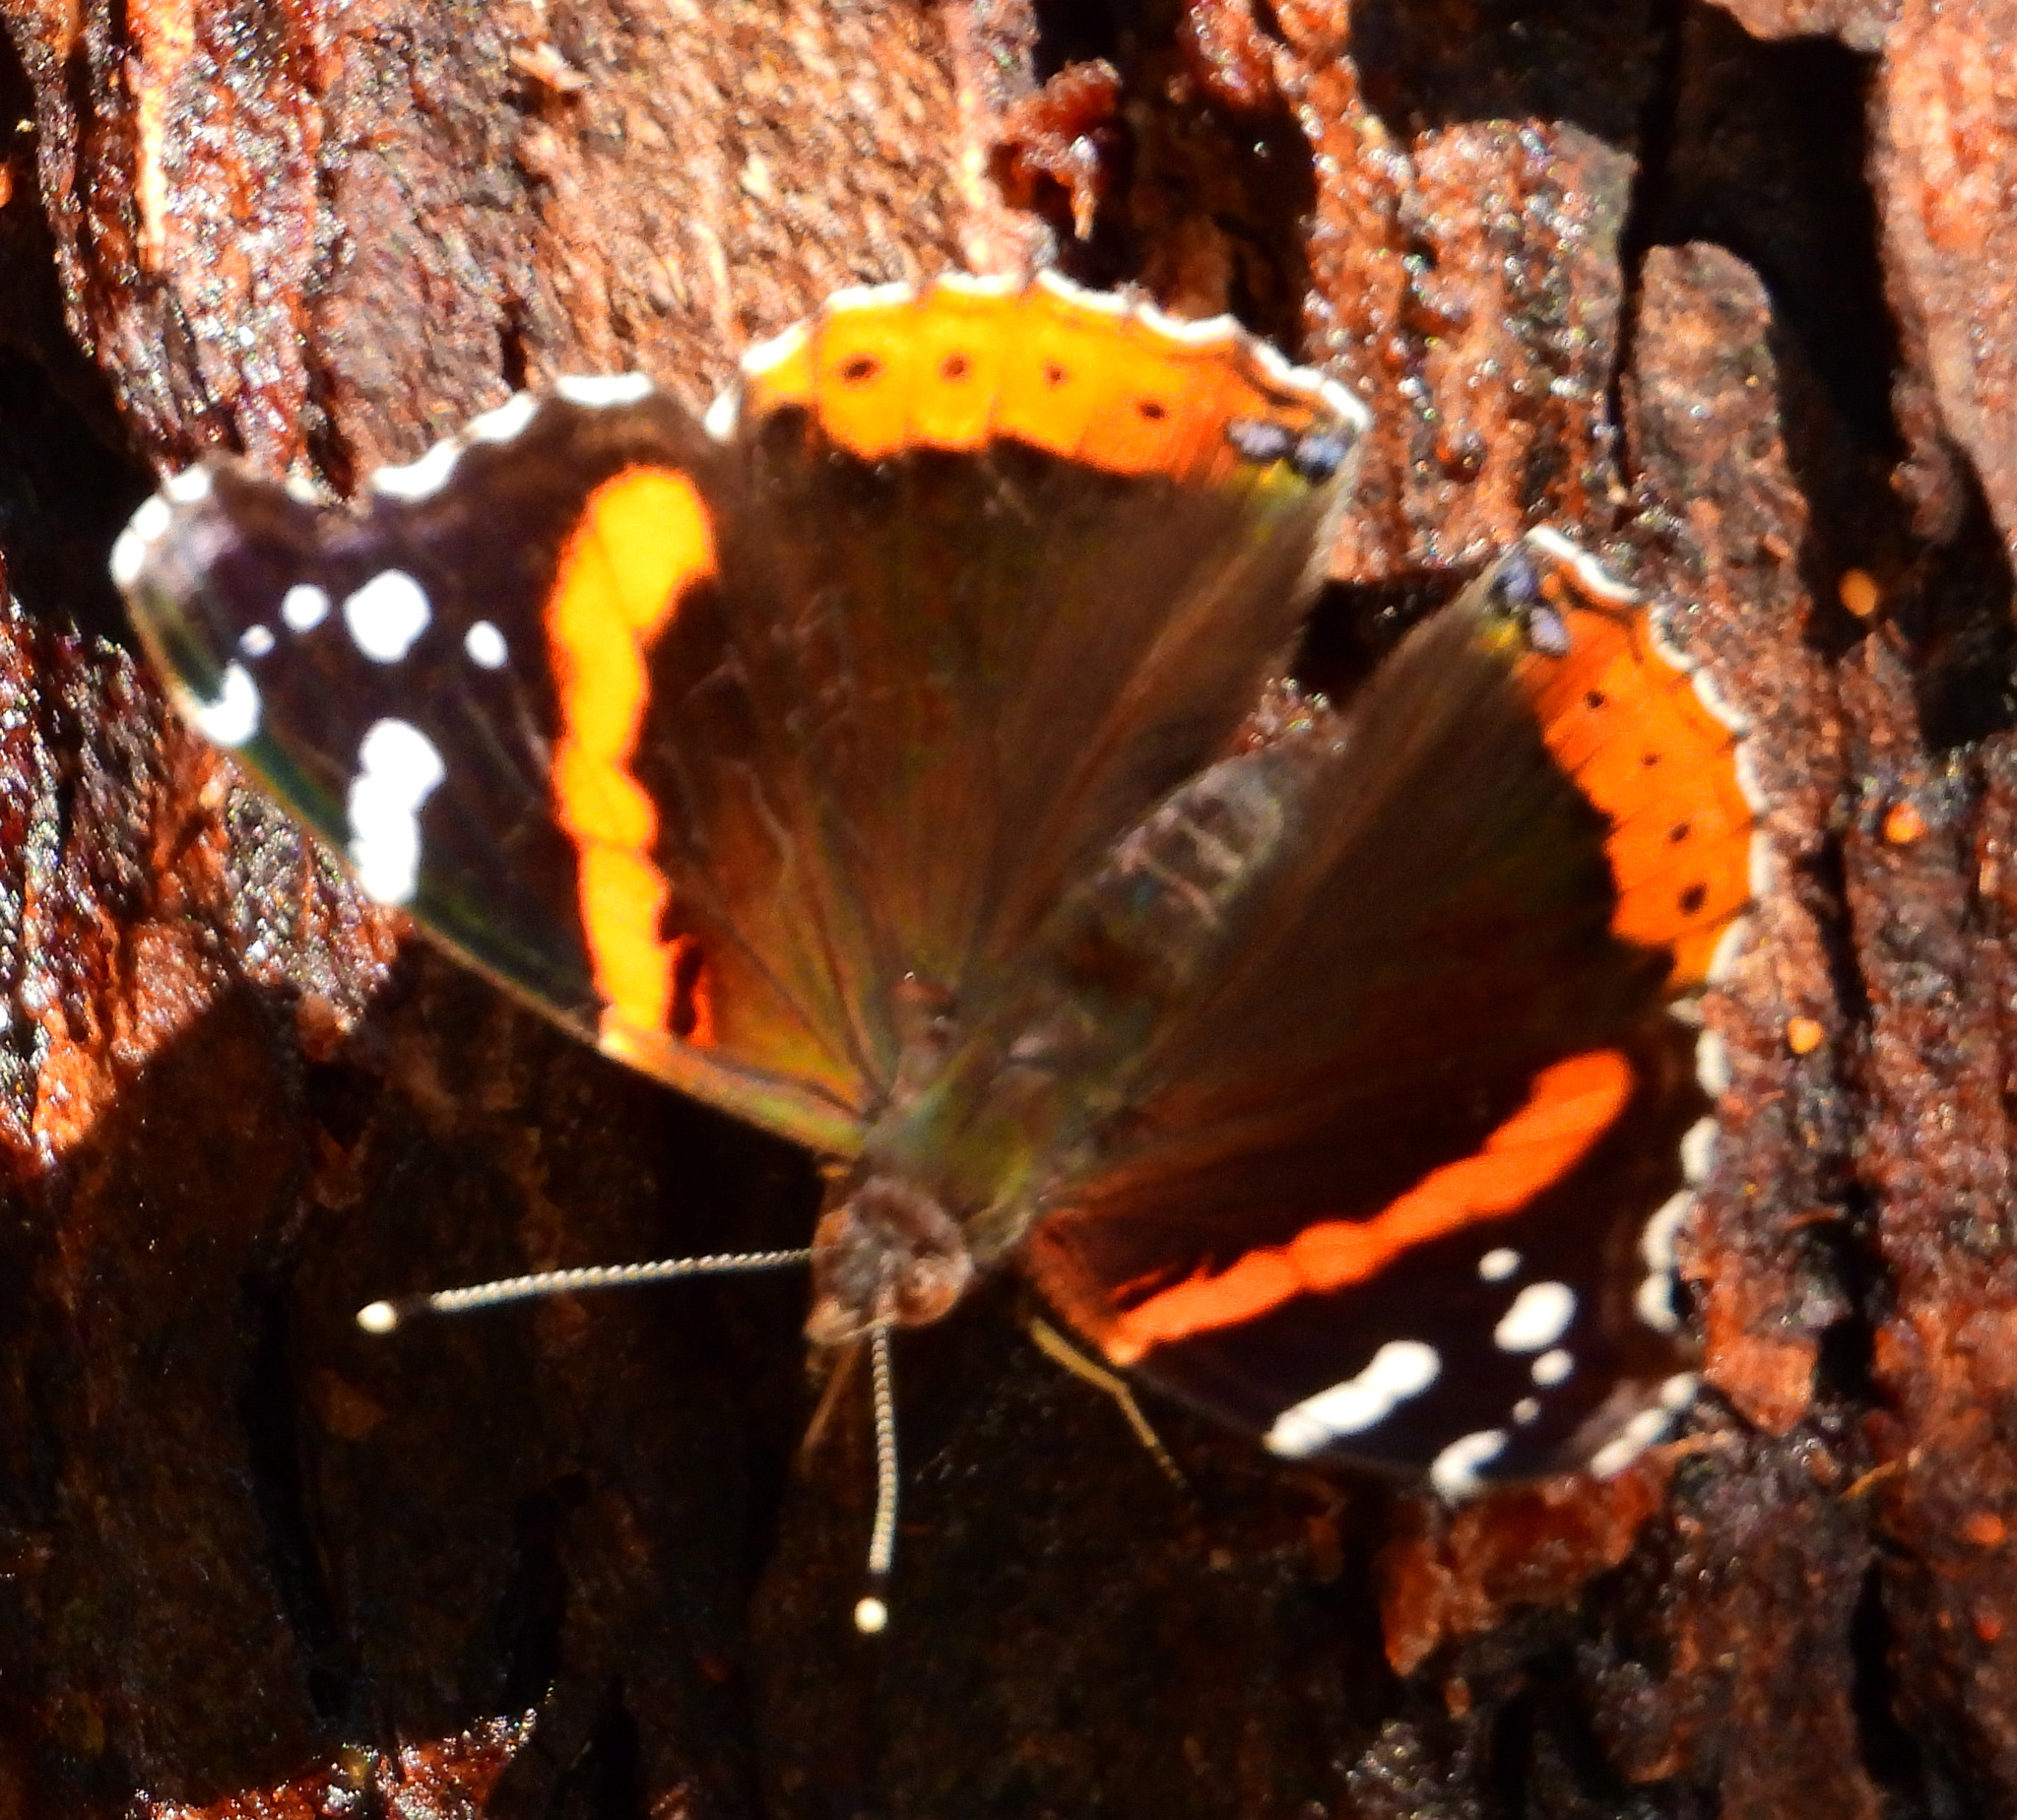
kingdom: Animalia
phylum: Arthropoda
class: Insecta
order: Lepidoptera
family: Nymphalidae
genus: Vanessa
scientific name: Vanessa atalanta
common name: Red admiral
